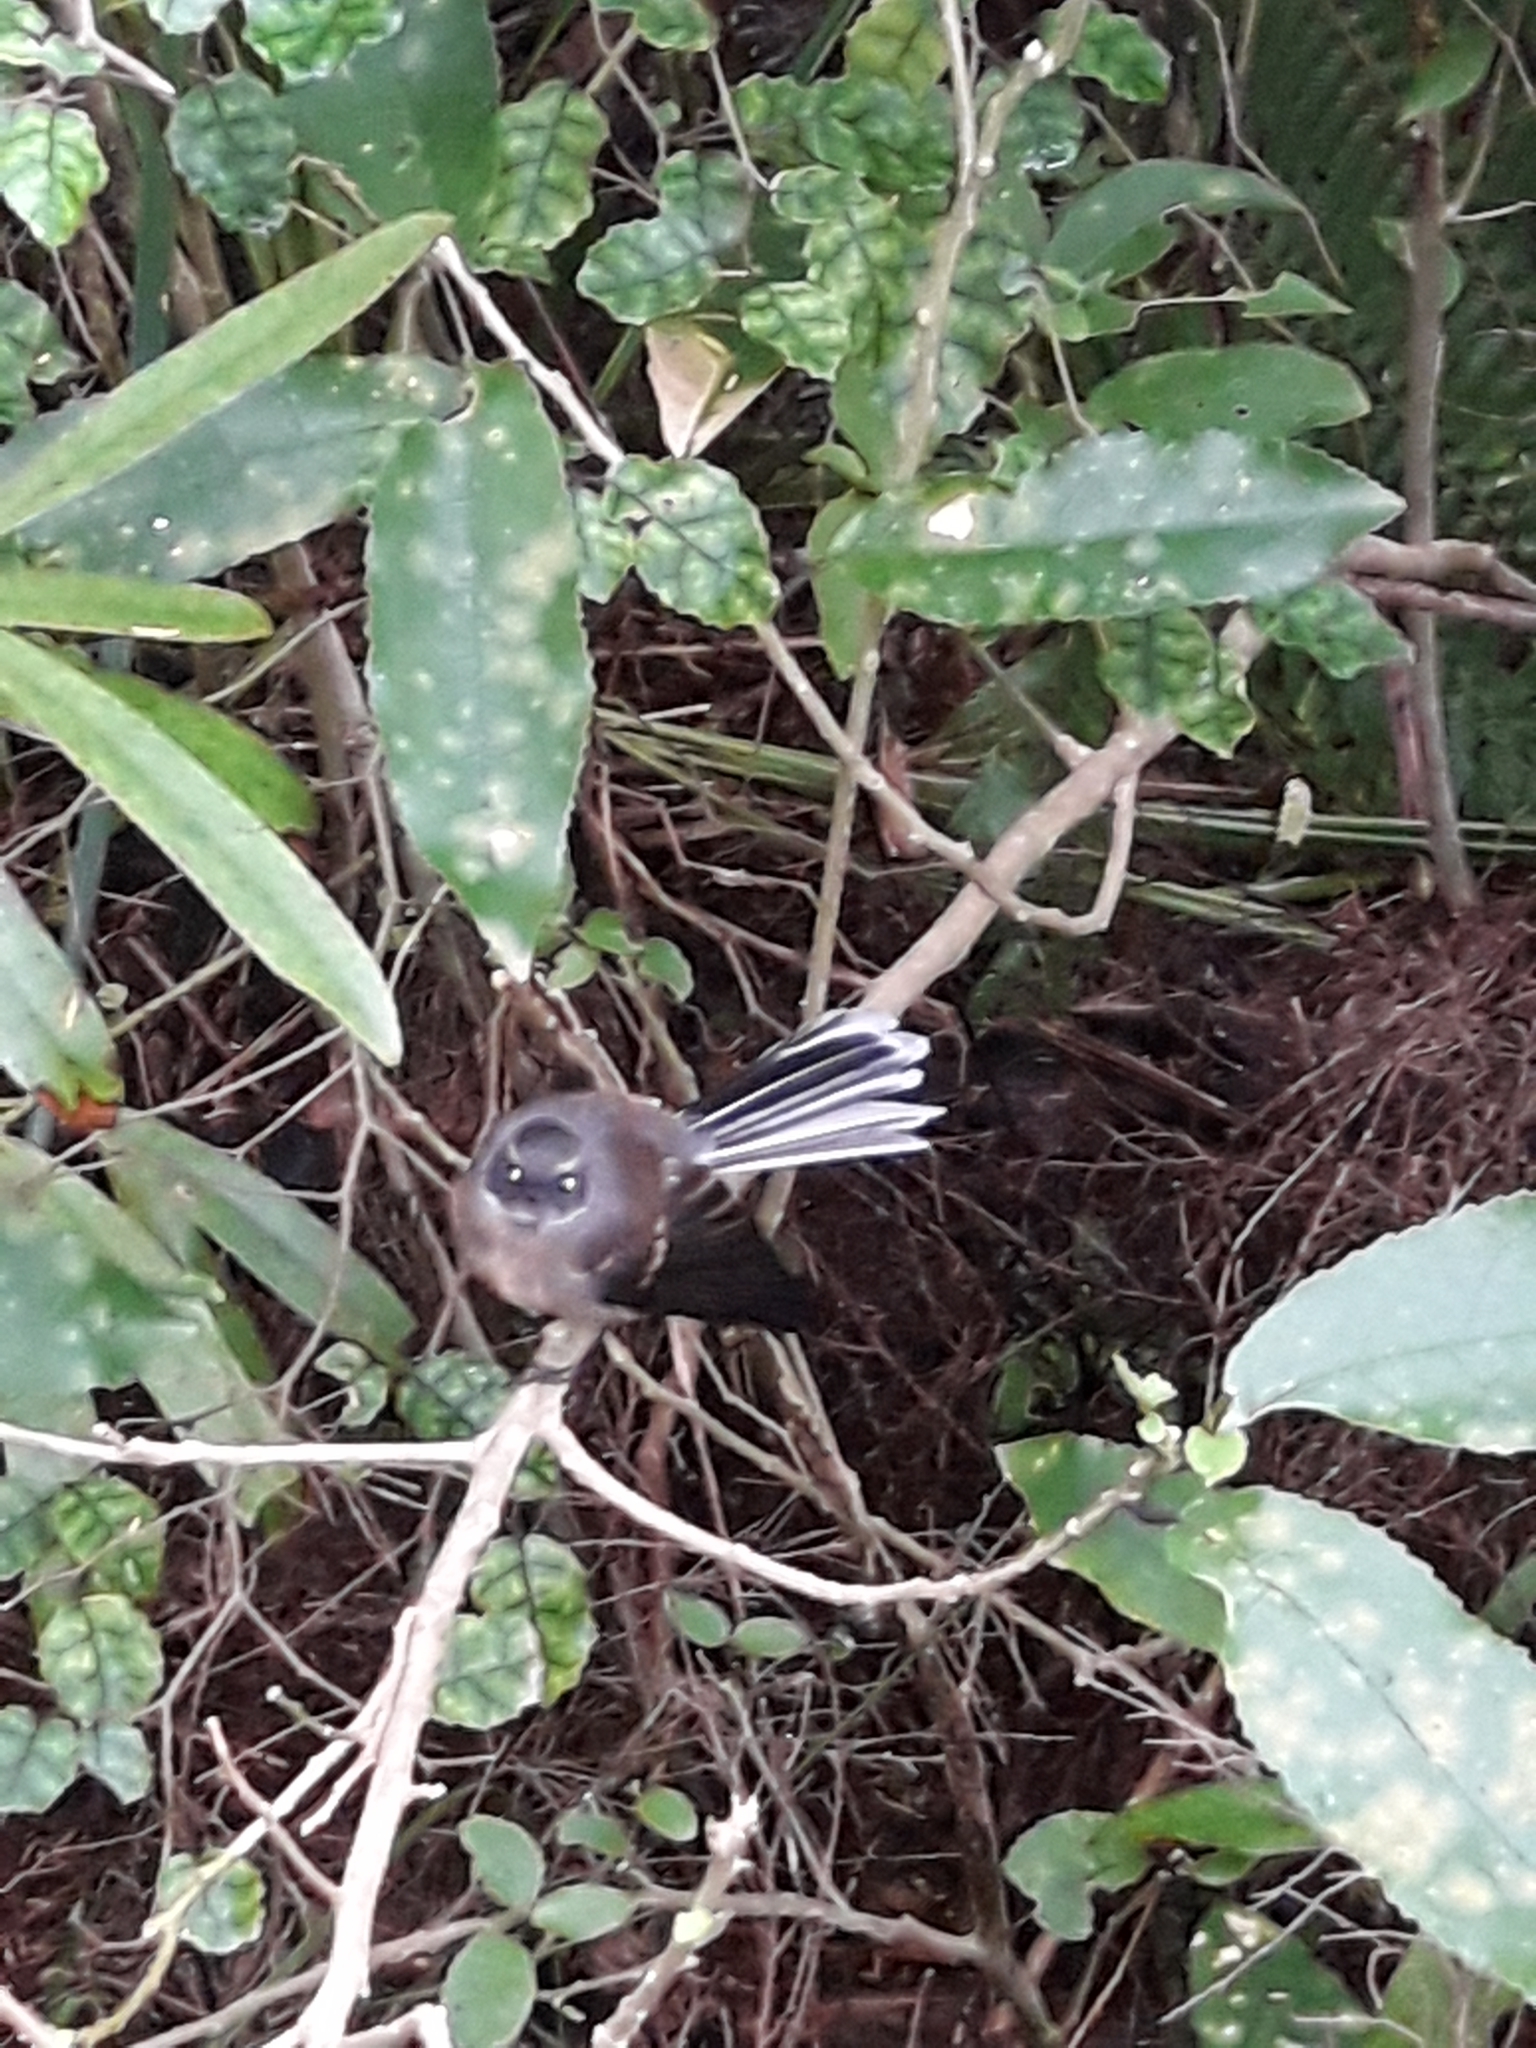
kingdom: Animalia
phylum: Chordata
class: Aves
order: Passeriformes
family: Rhipiduridae
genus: Rhipidura
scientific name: Rhipidura fuliginosa
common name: New zealand fantail
